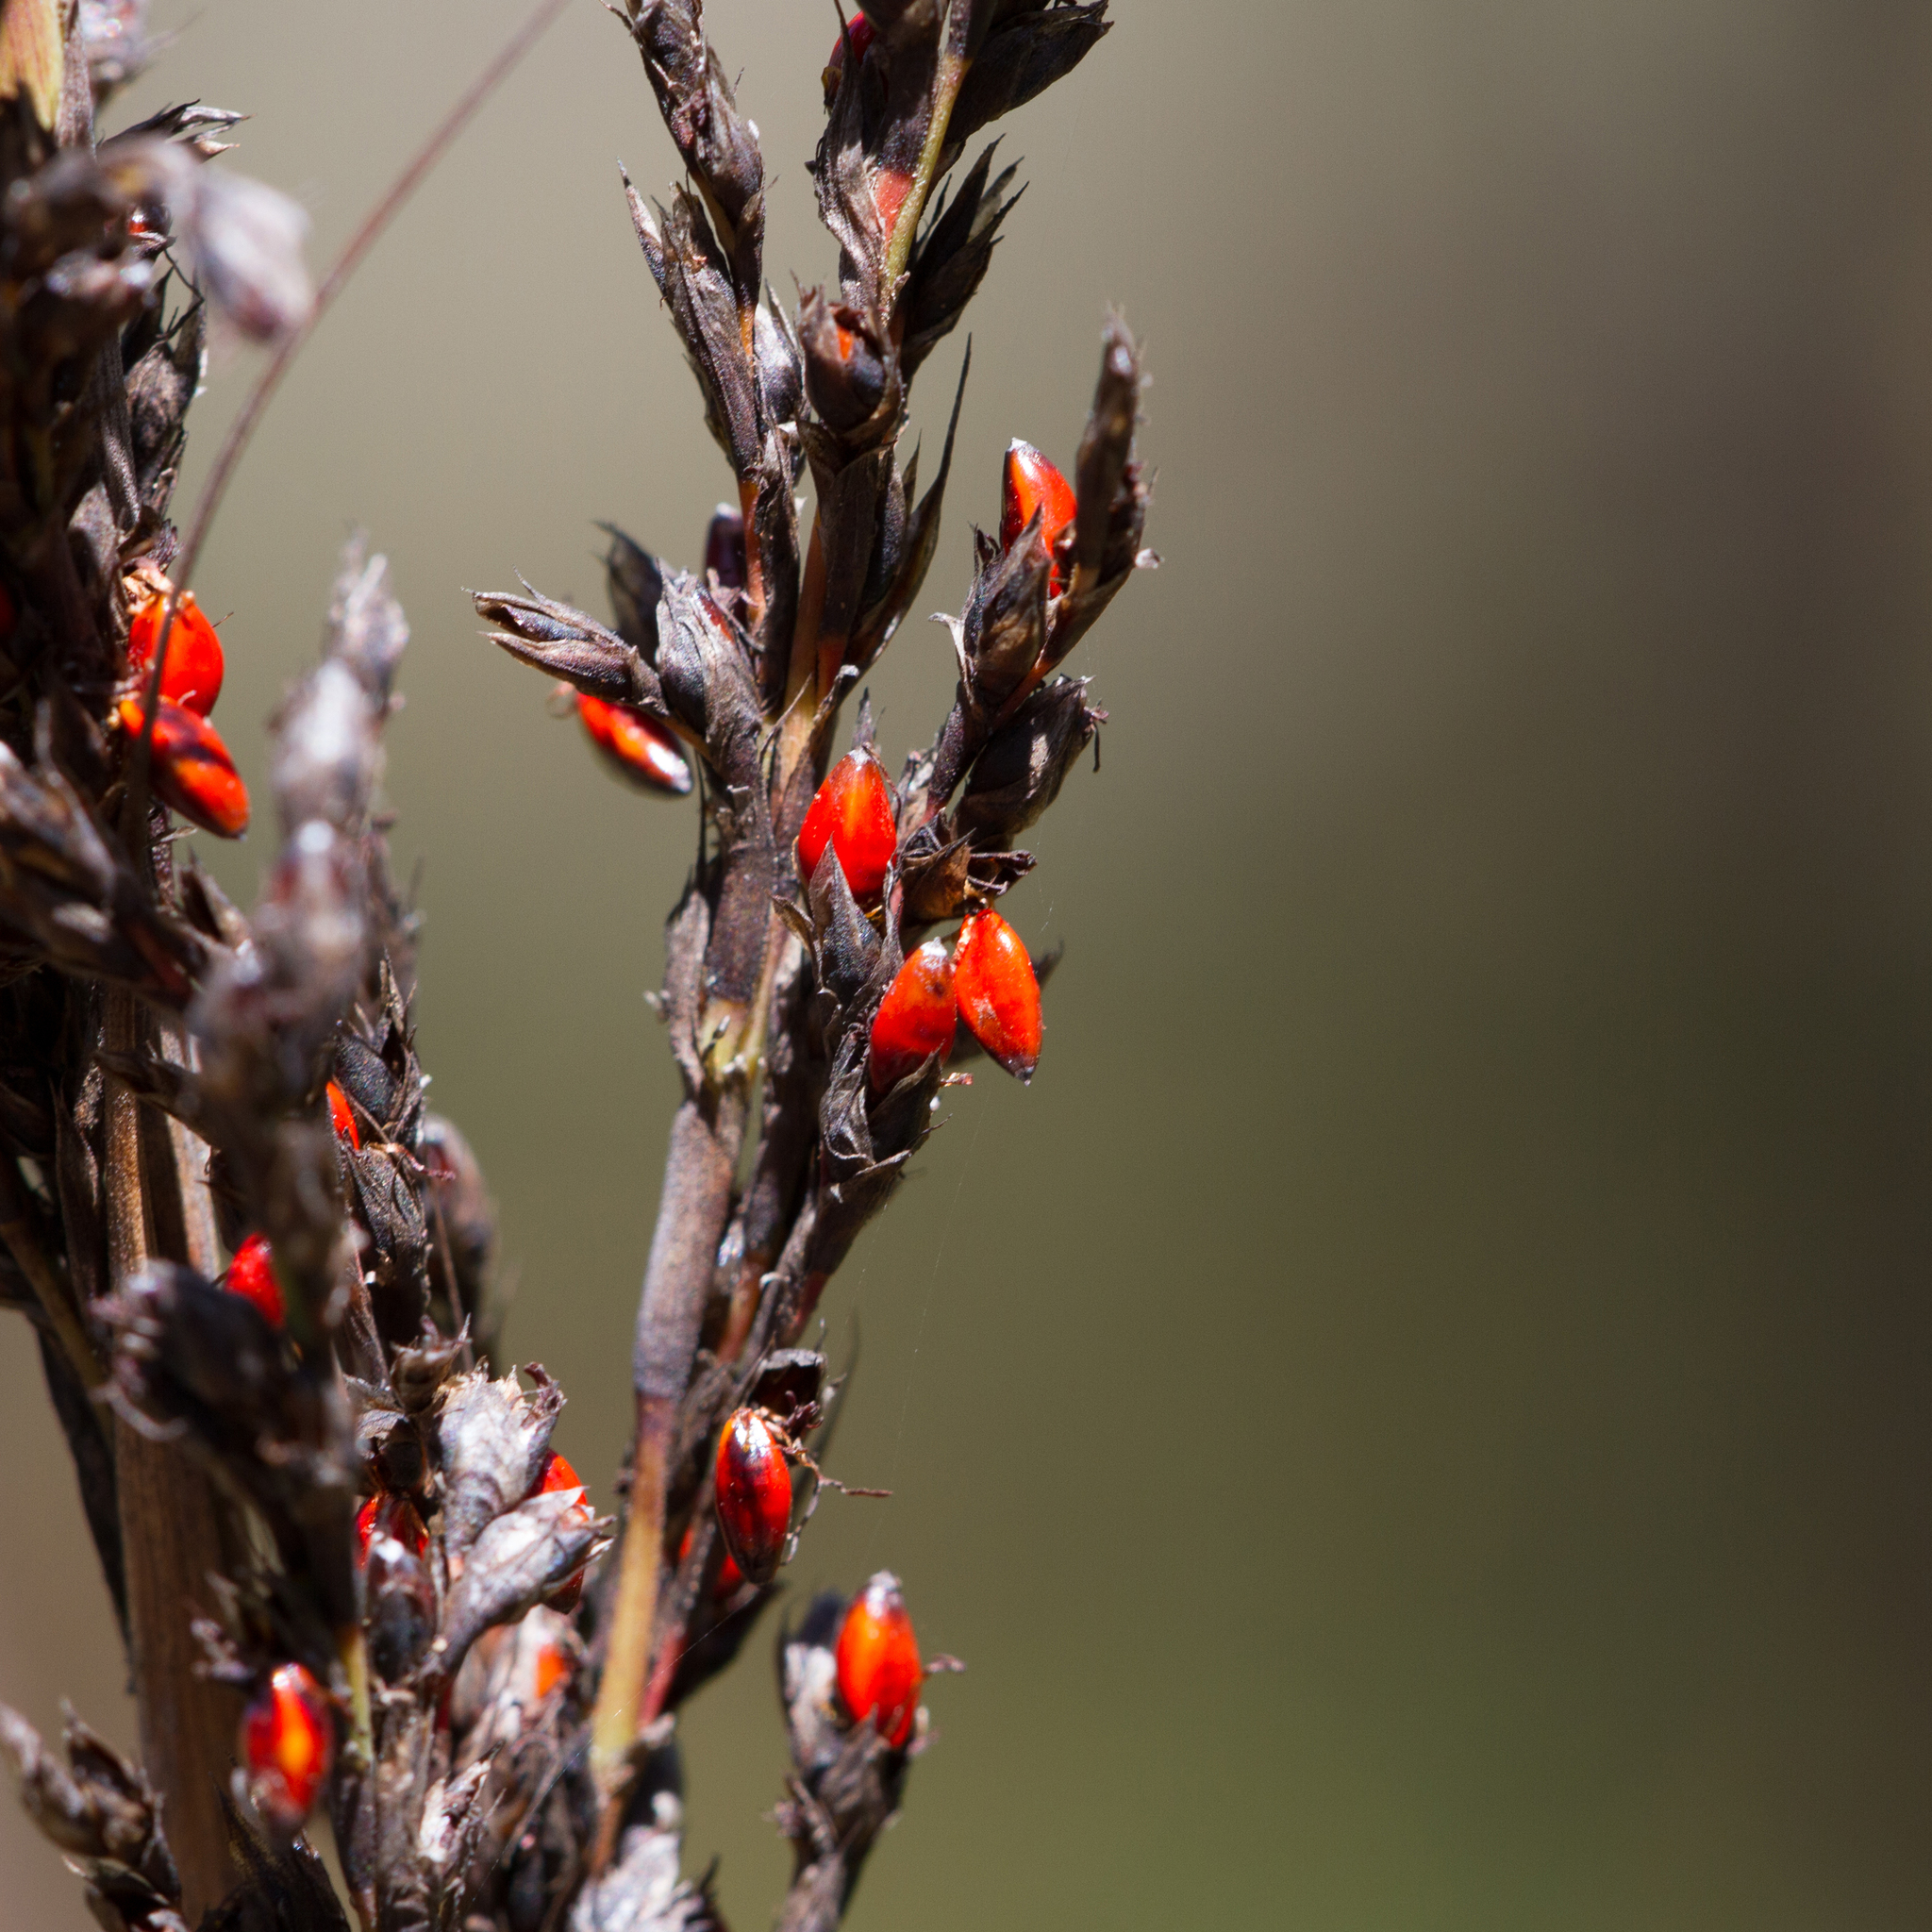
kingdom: Plantae
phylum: Tracheophyta
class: Liliopsida
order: Poales
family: Cyperaceae
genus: Gahnia
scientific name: Gahnia sieberiana
